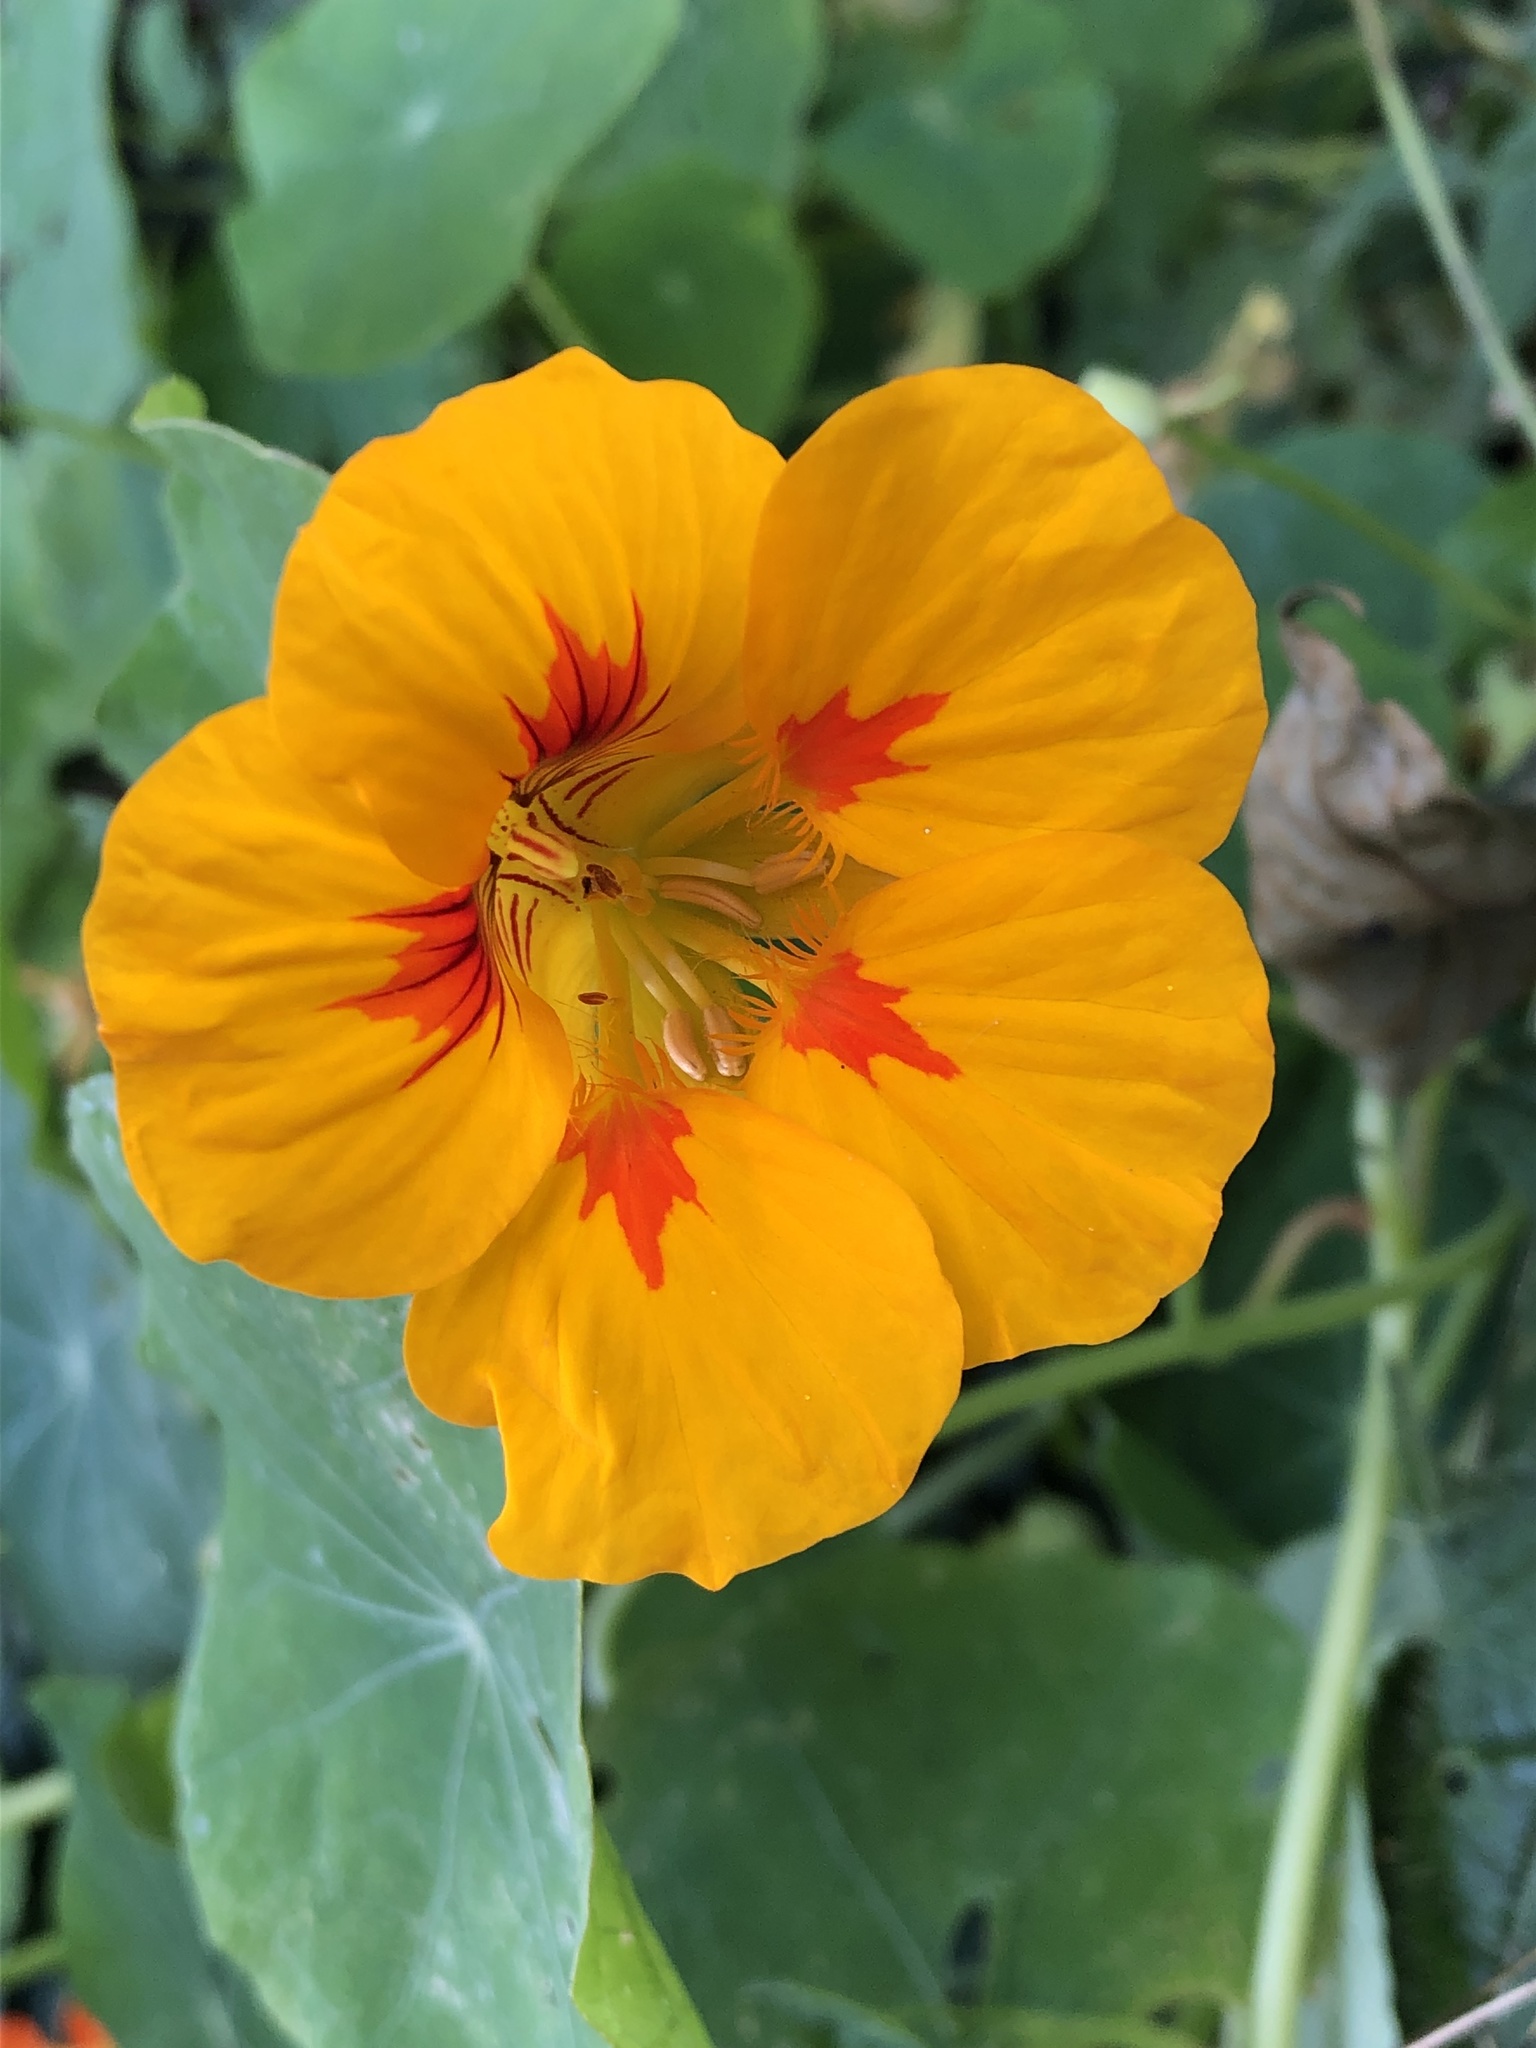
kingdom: Plantae
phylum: Tracheophyta
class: Magnoliopsida
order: Brassicales
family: Tropaeolaceae
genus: Tropaeolum
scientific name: Tropaeolum majus
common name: Nasturtium
